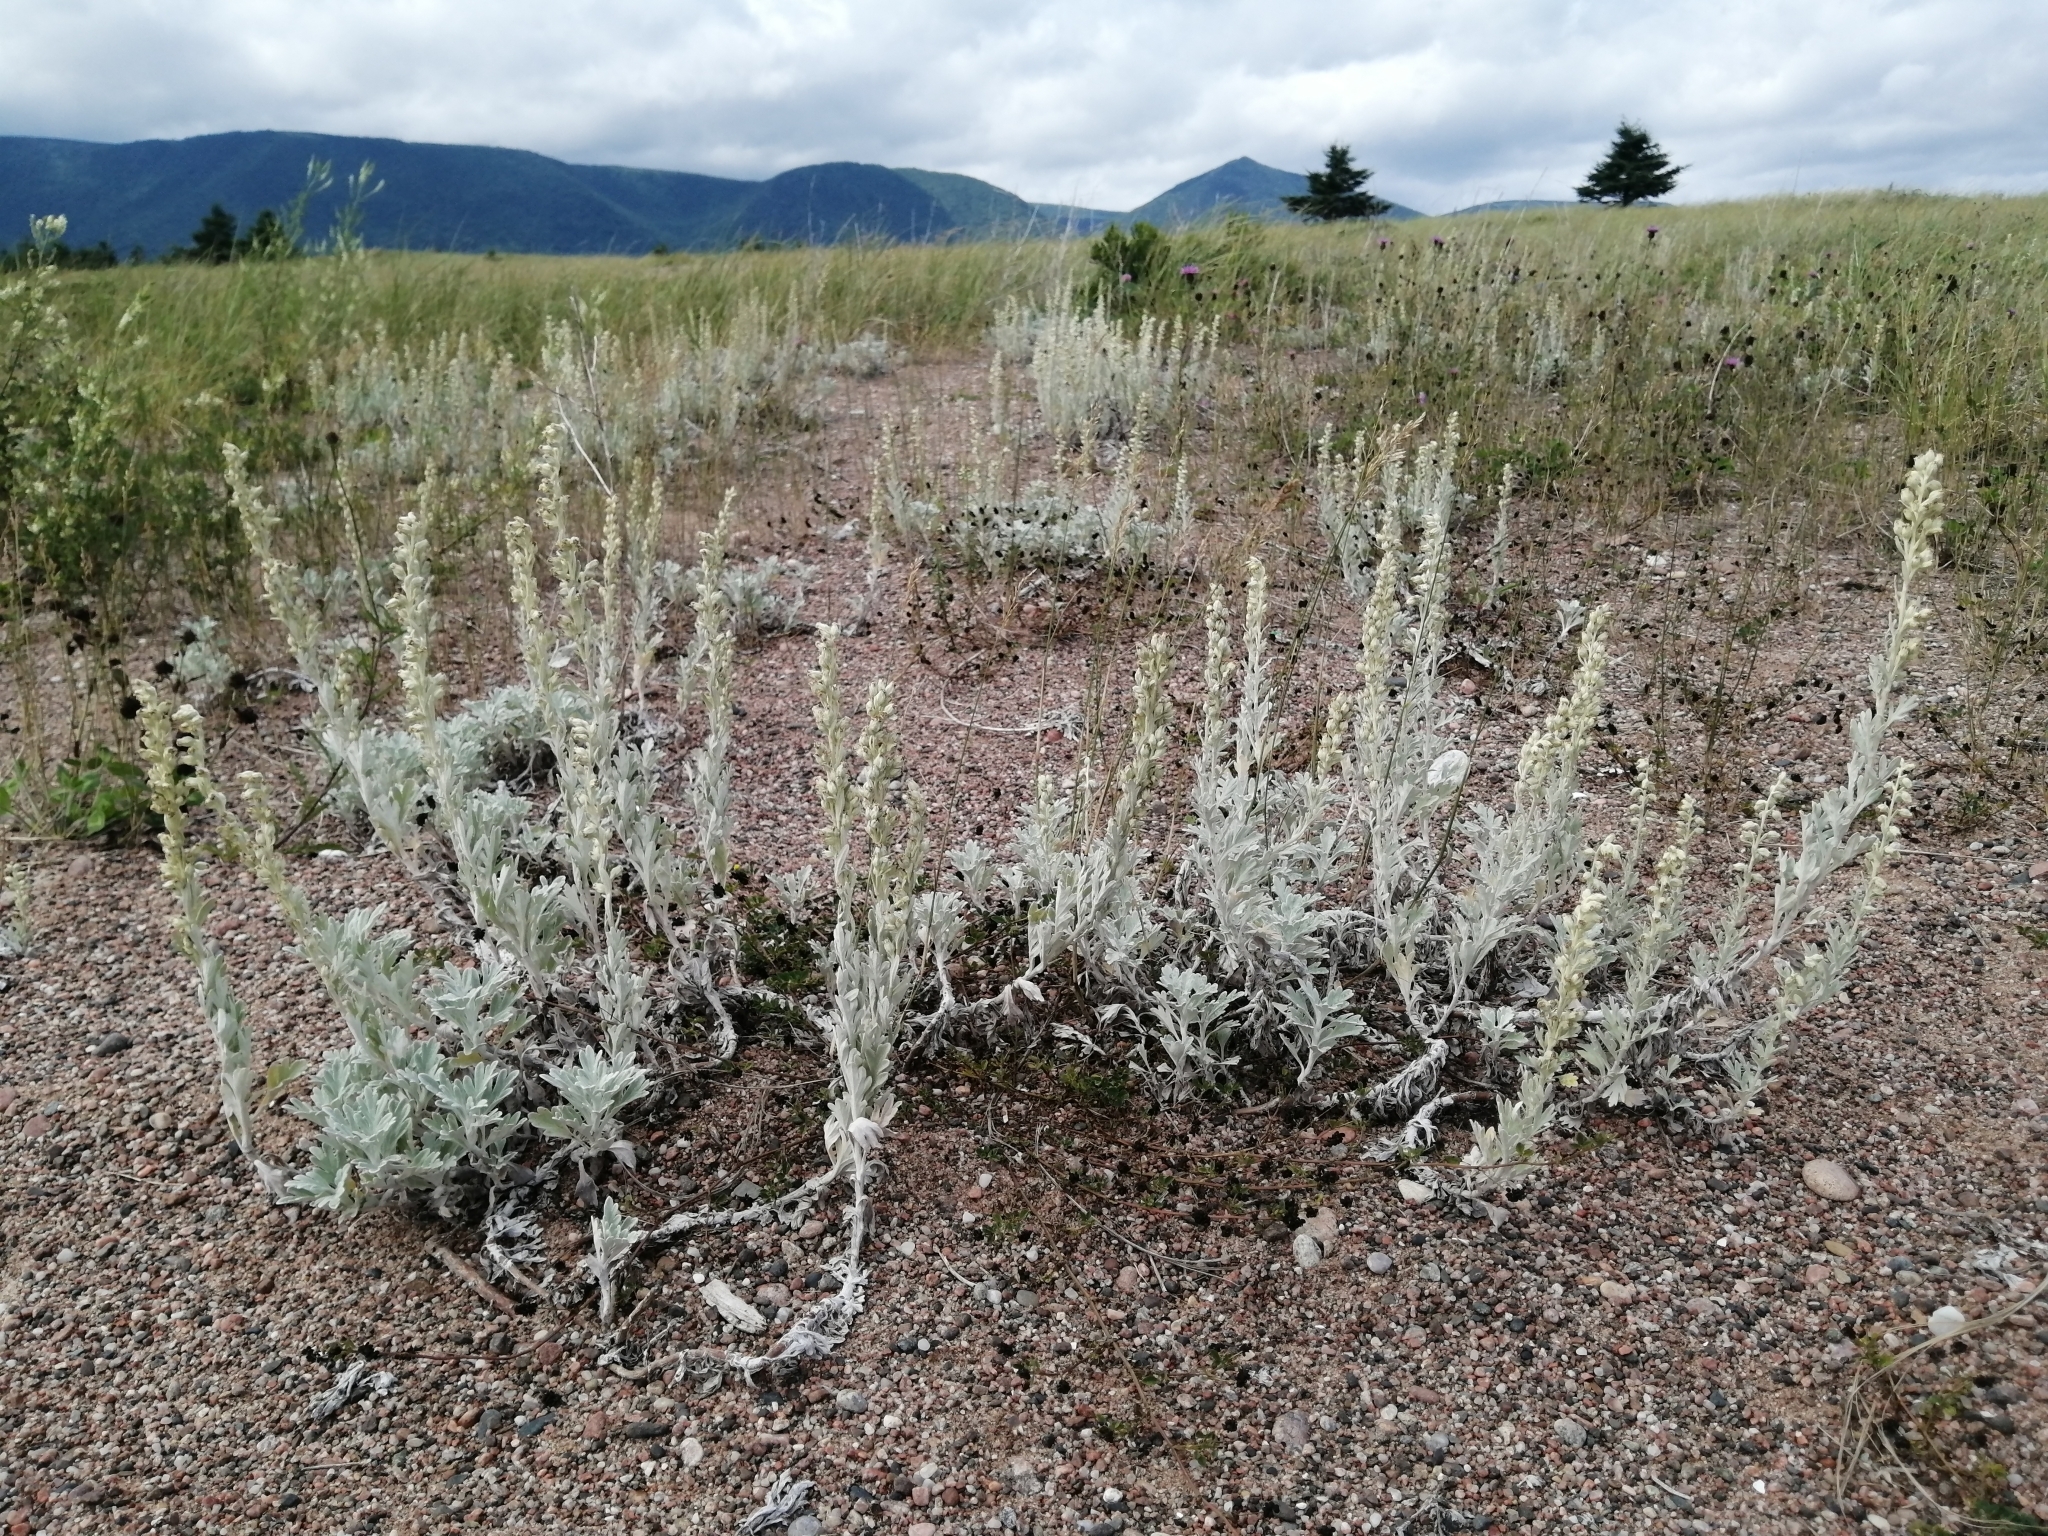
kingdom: Plantae
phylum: Tracheophyta
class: Magnoliopsida
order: Asterales
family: Asteraceae
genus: Artemisia
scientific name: Artemisia stelleriana
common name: Beach wormwood
